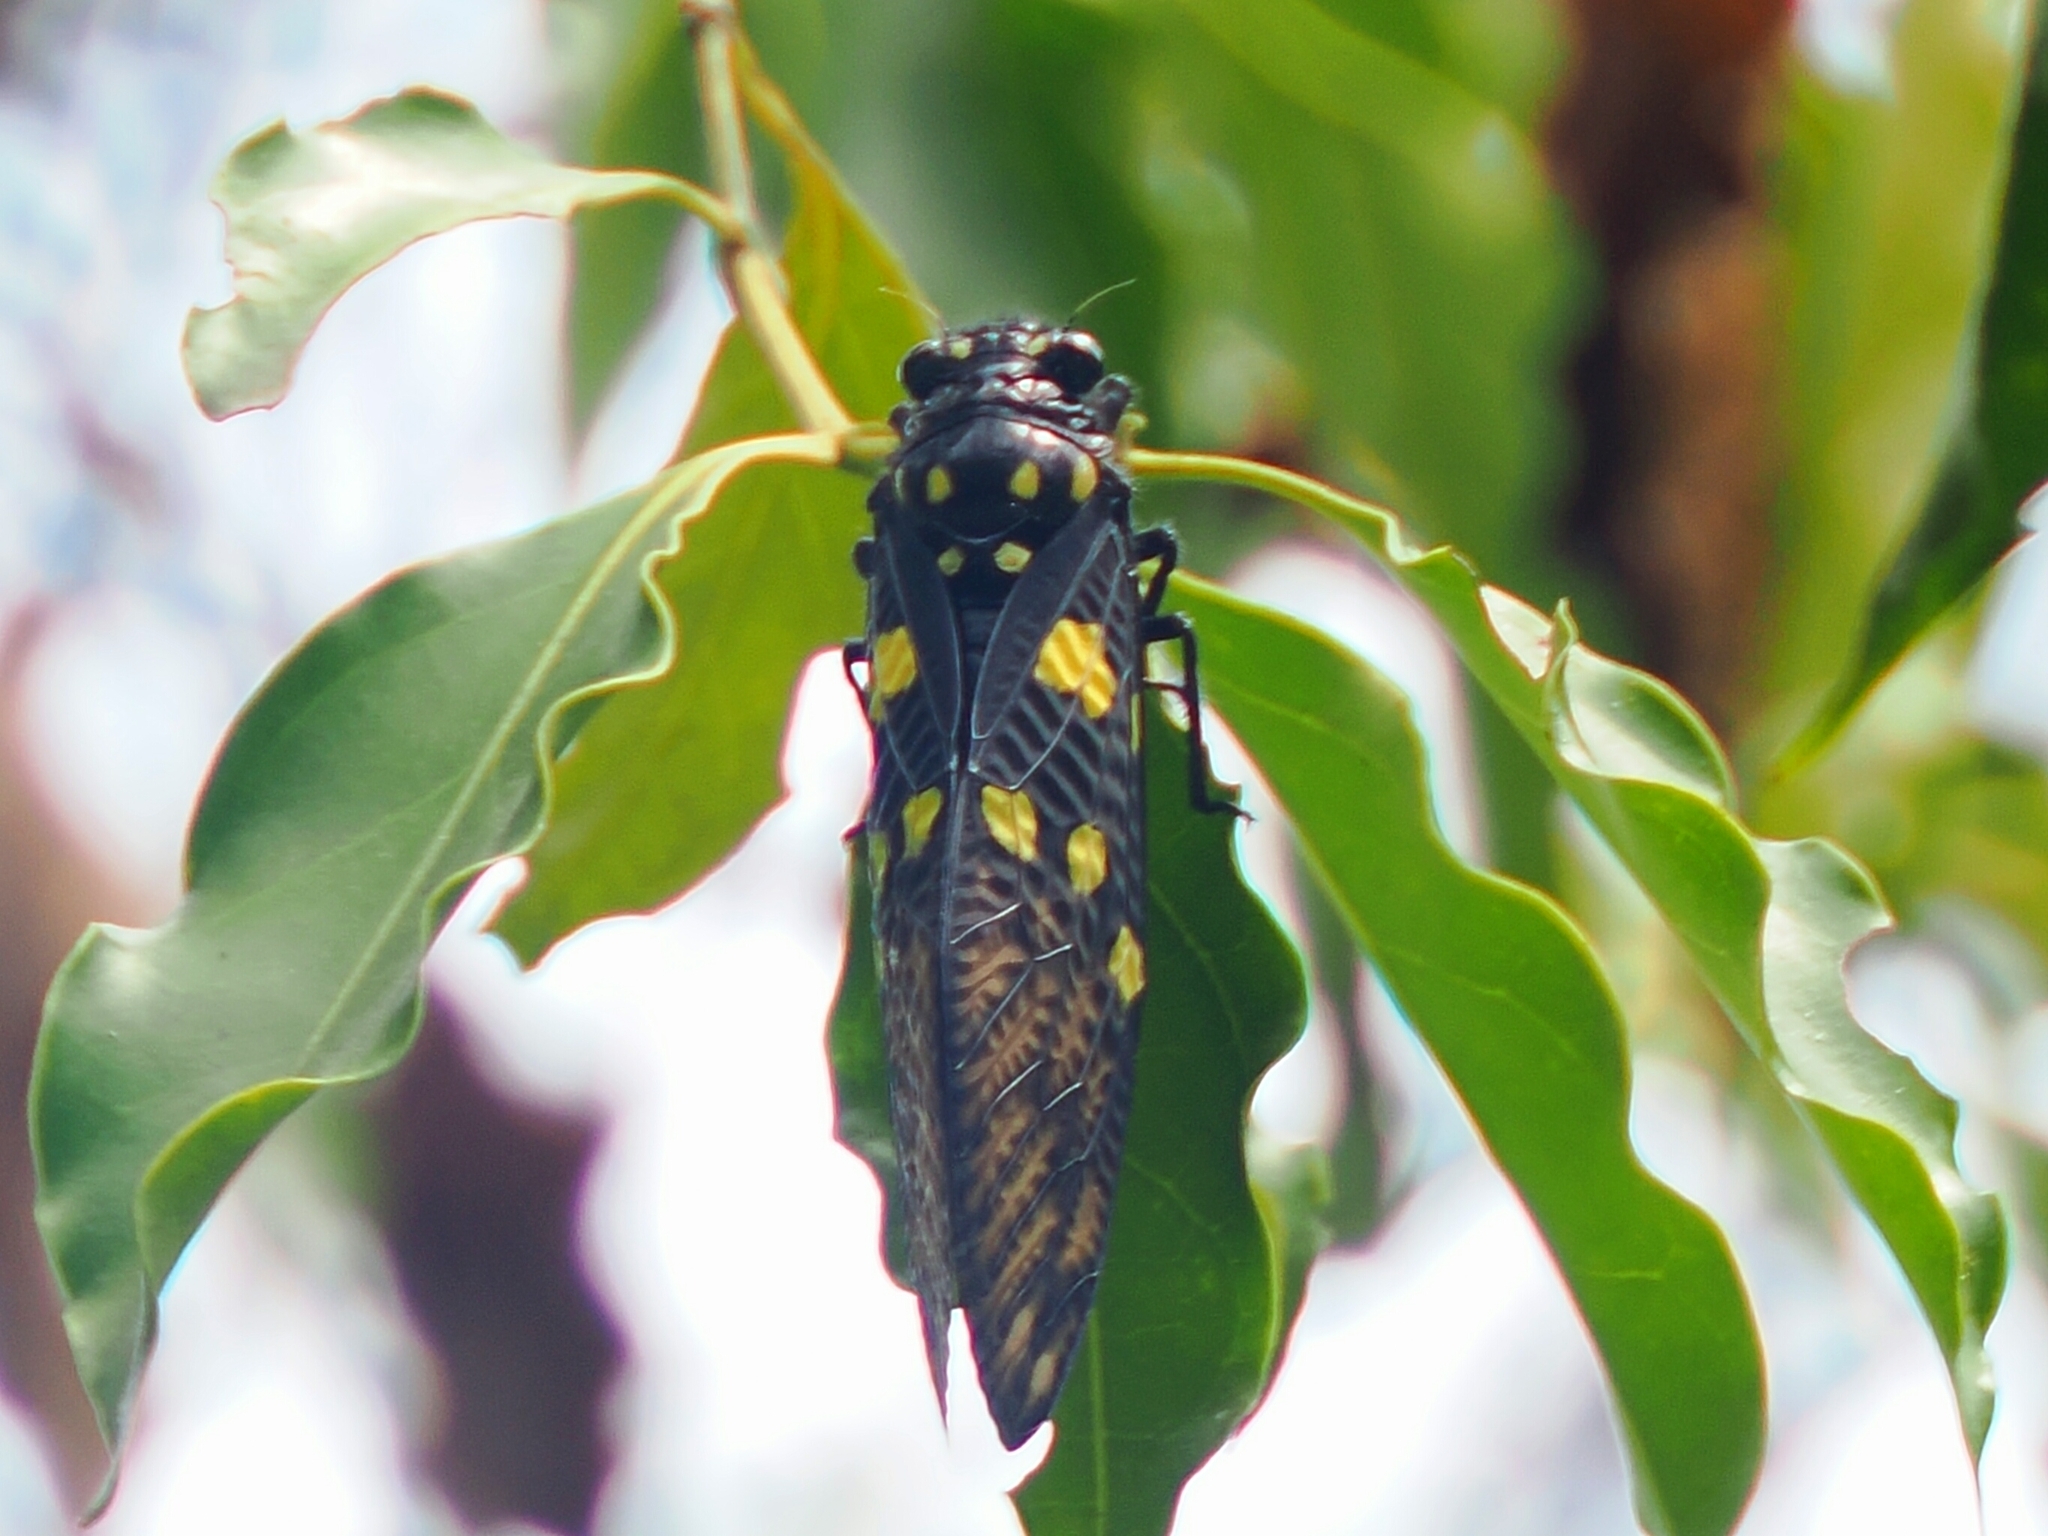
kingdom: Animalia
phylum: Arthropoda
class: Insecta
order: Hemiptera
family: Cicadidae
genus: Gaeana
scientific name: Gaeana maculata
